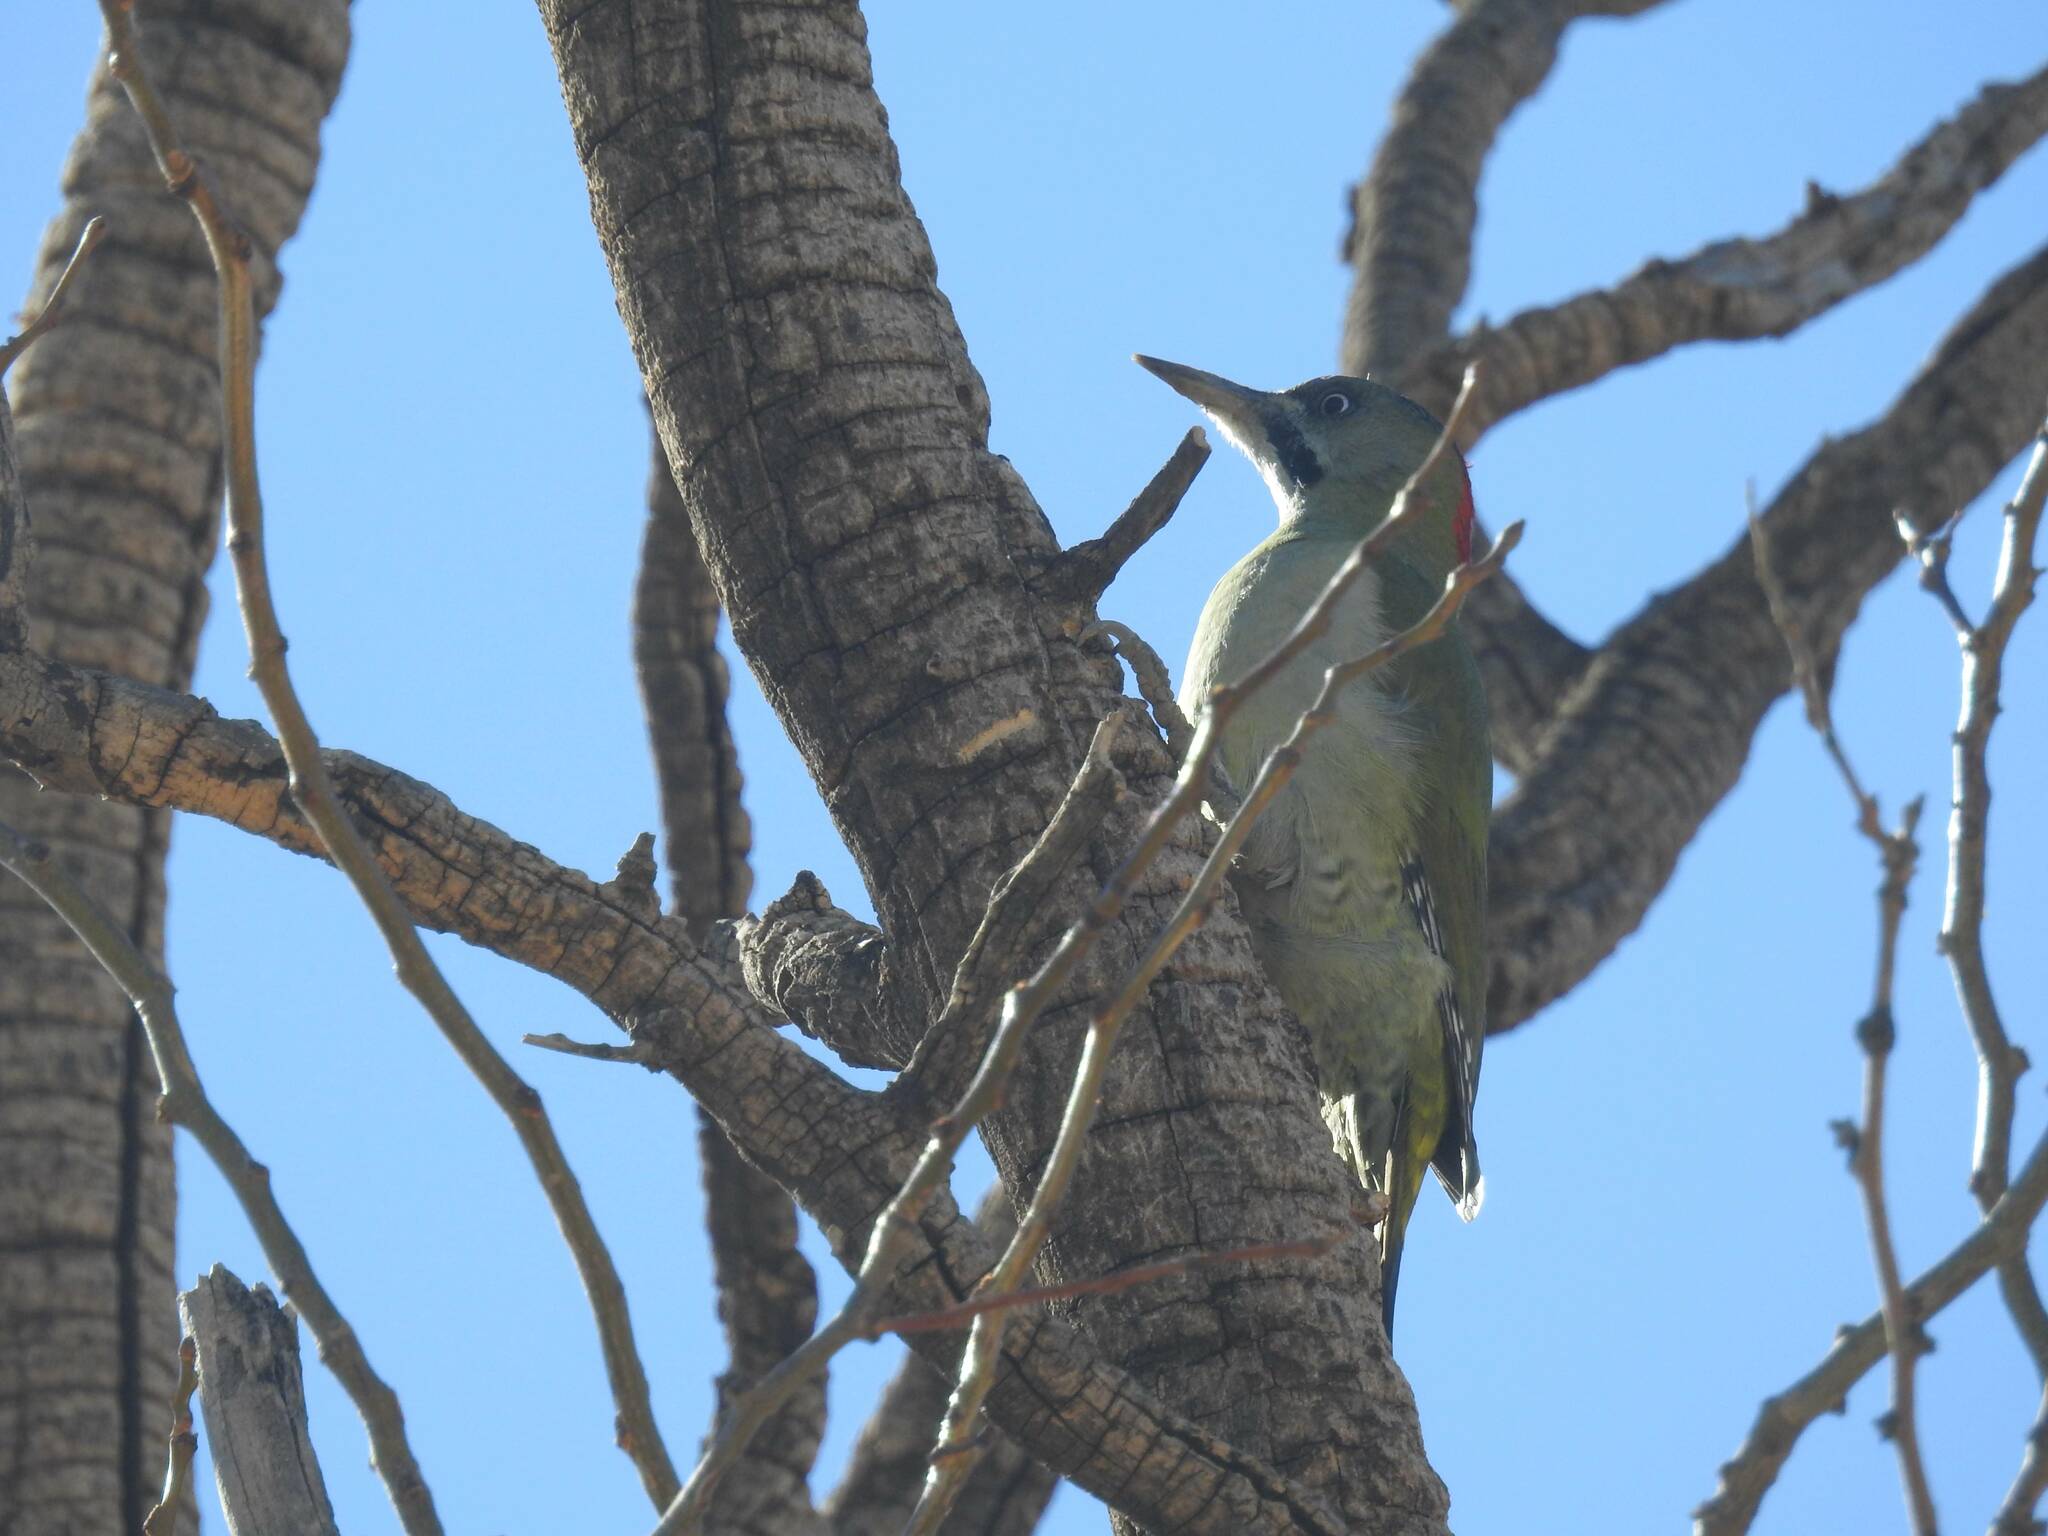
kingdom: Animalia
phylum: Chordata
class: Aves
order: Piciformes
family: Picidae
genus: Picus
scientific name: Picus vaillantii
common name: Levaillant's woodpecker
